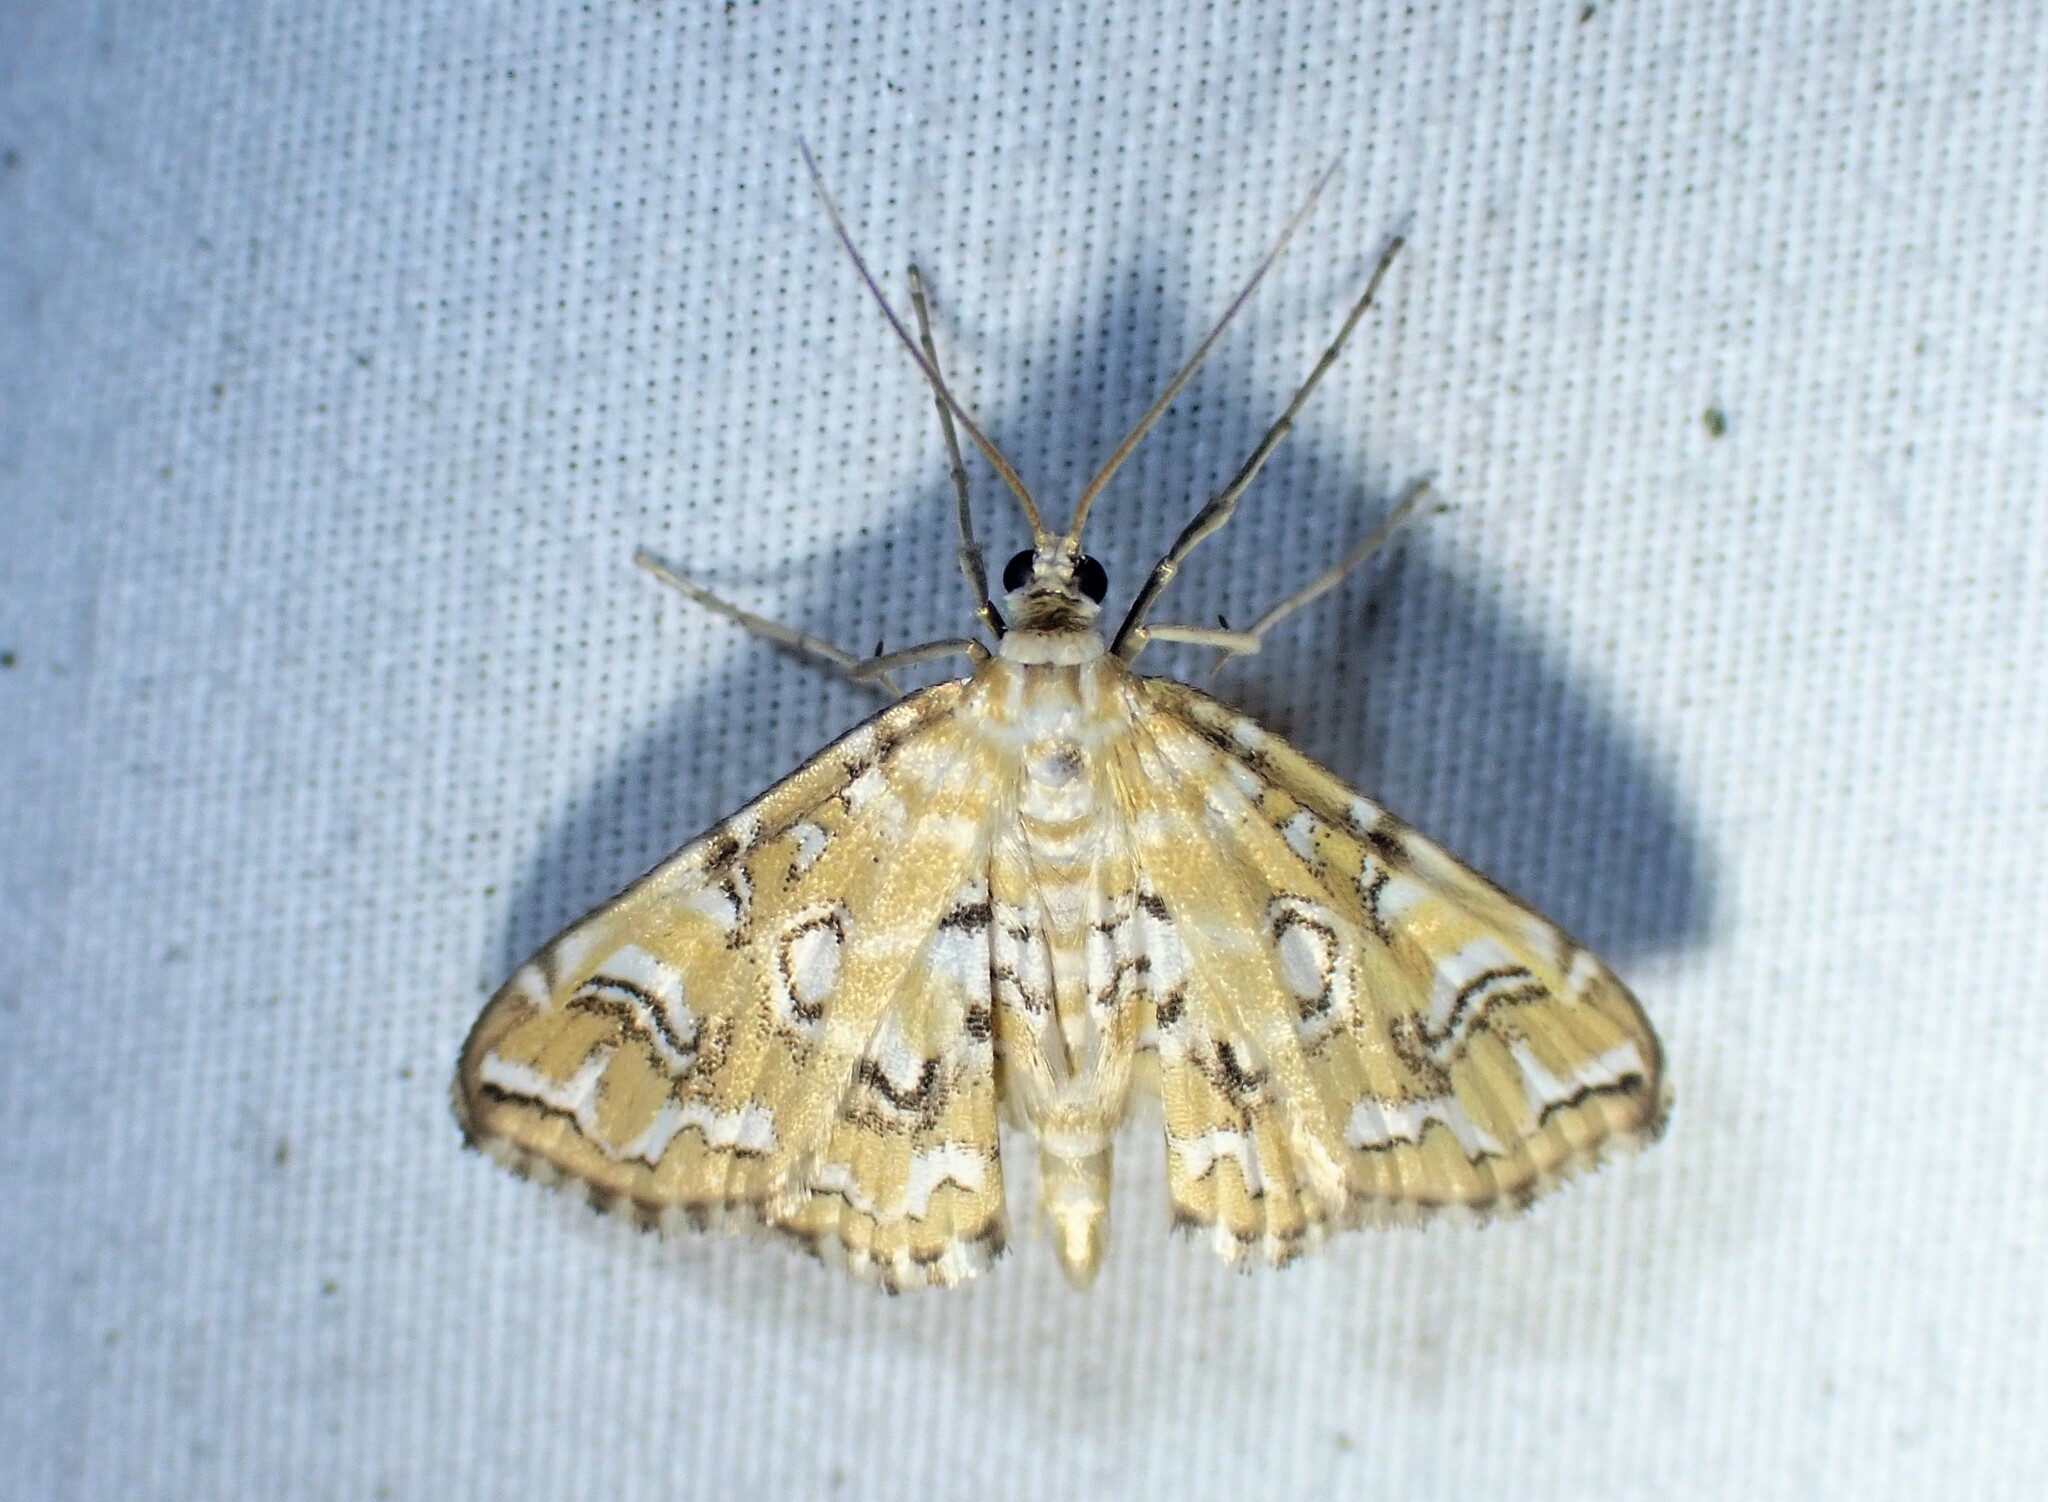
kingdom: Animalia
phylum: Arthropoda
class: Insecta
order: Lepidoptera
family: Crambidae
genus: Elophila
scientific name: Elophila icciusalis
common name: Pondside pyralid moth
